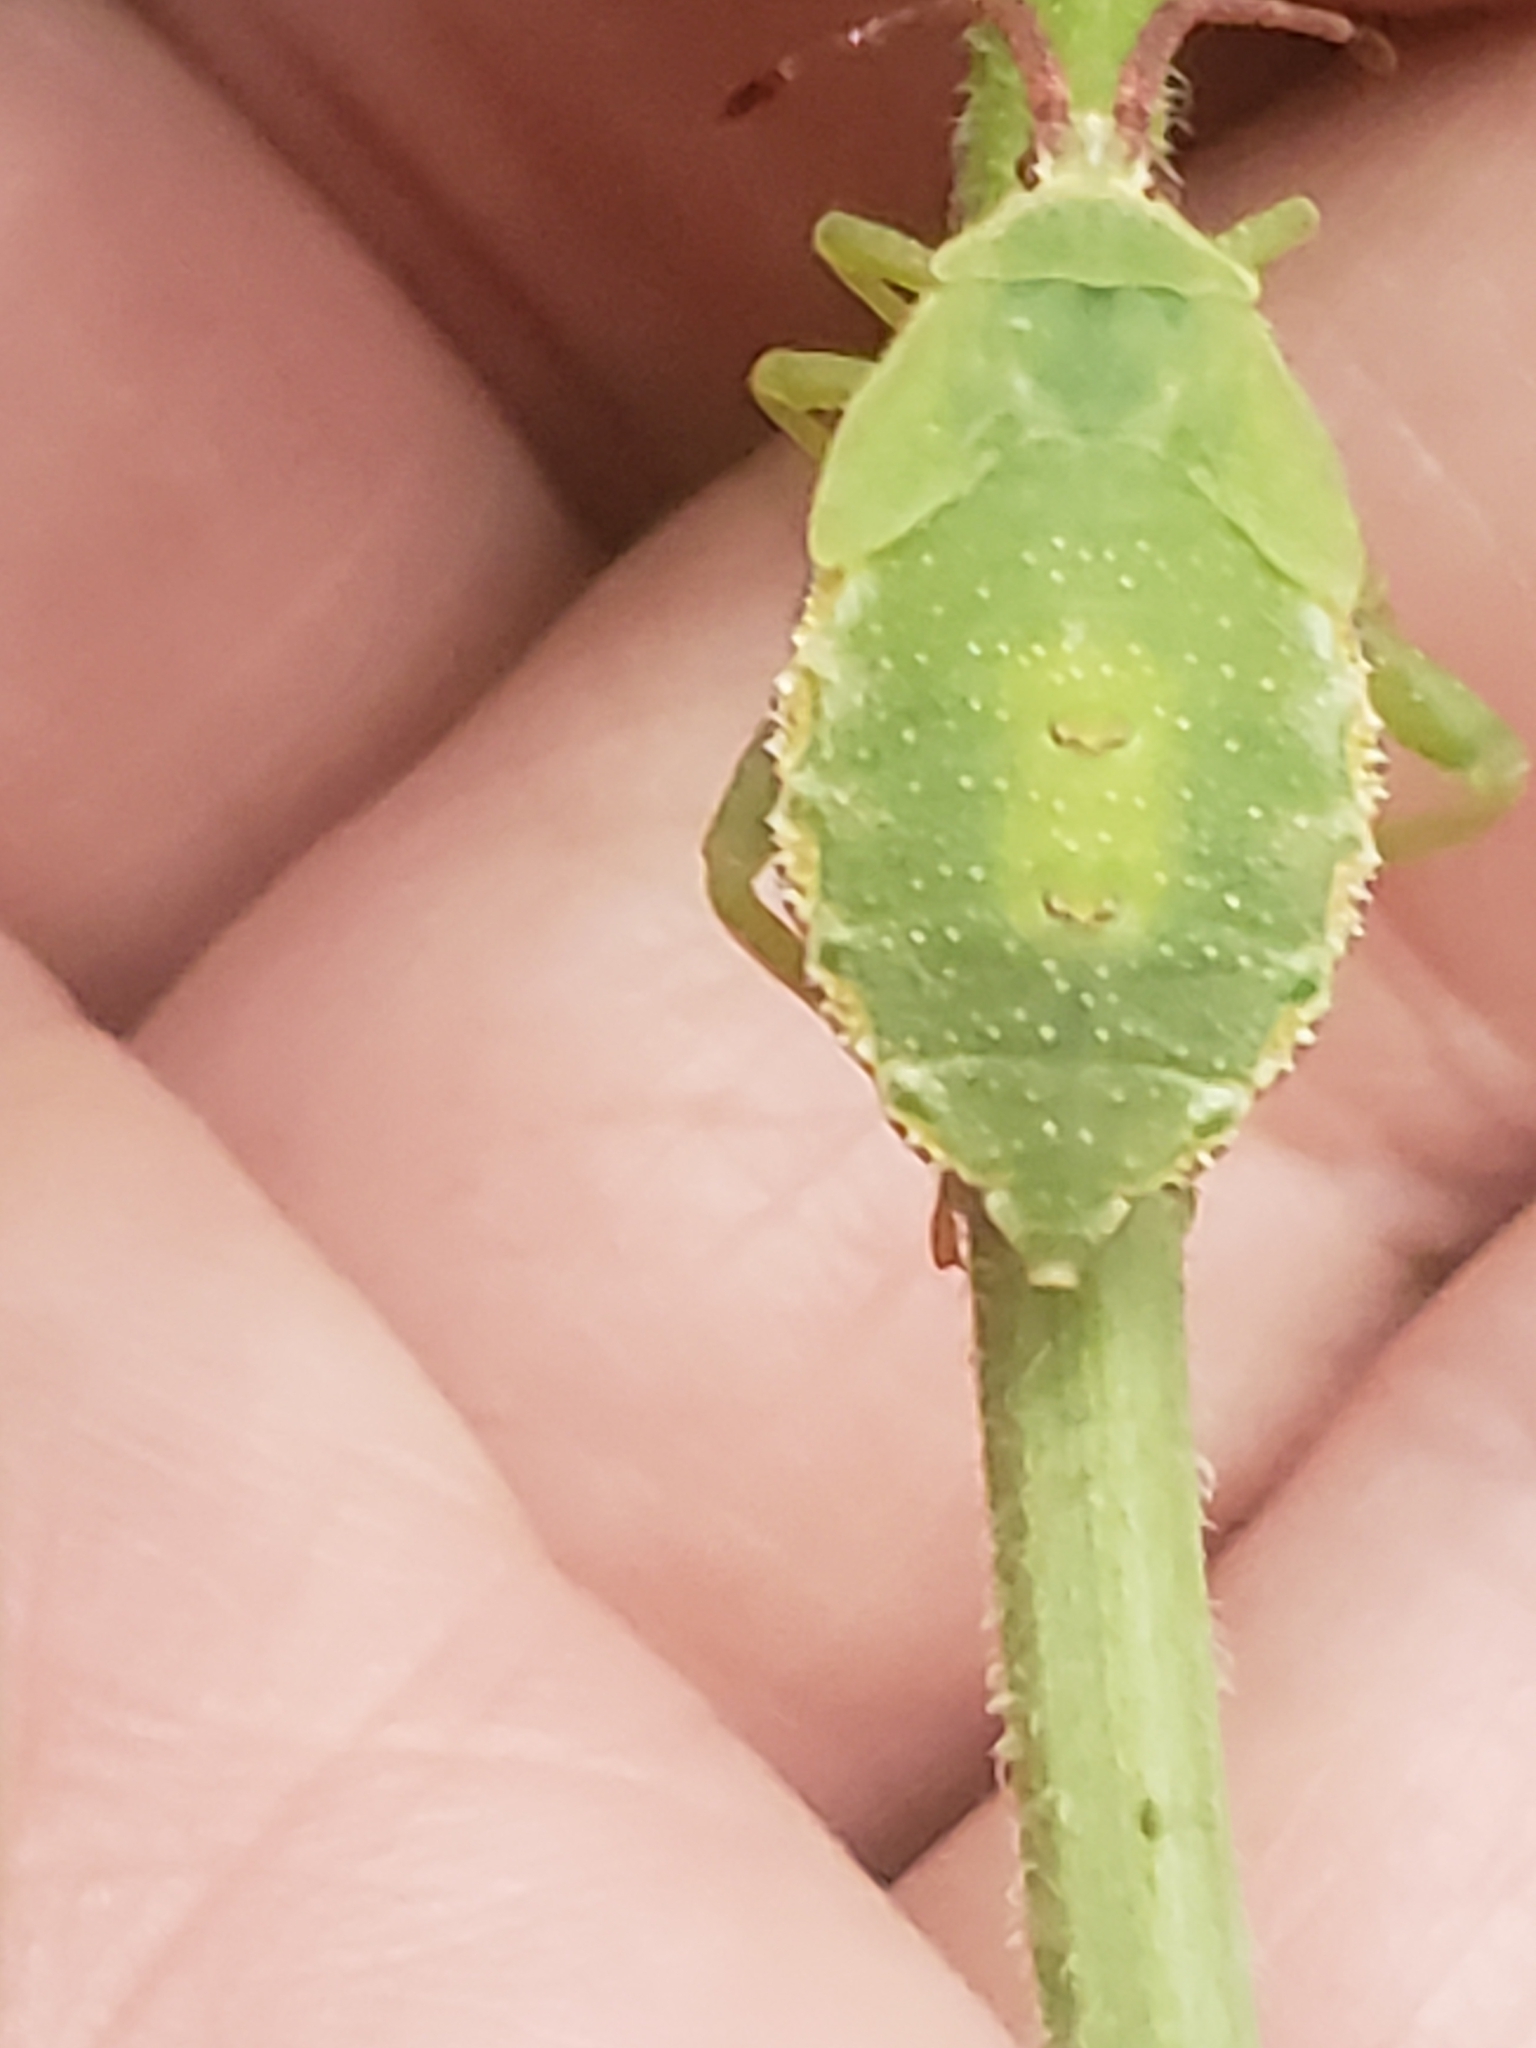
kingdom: Animalia
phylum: Arthropoda
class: Insecta
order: Hemiptera
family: Coreidae
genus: Piezogaster
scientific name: Piezogaster calcarator
